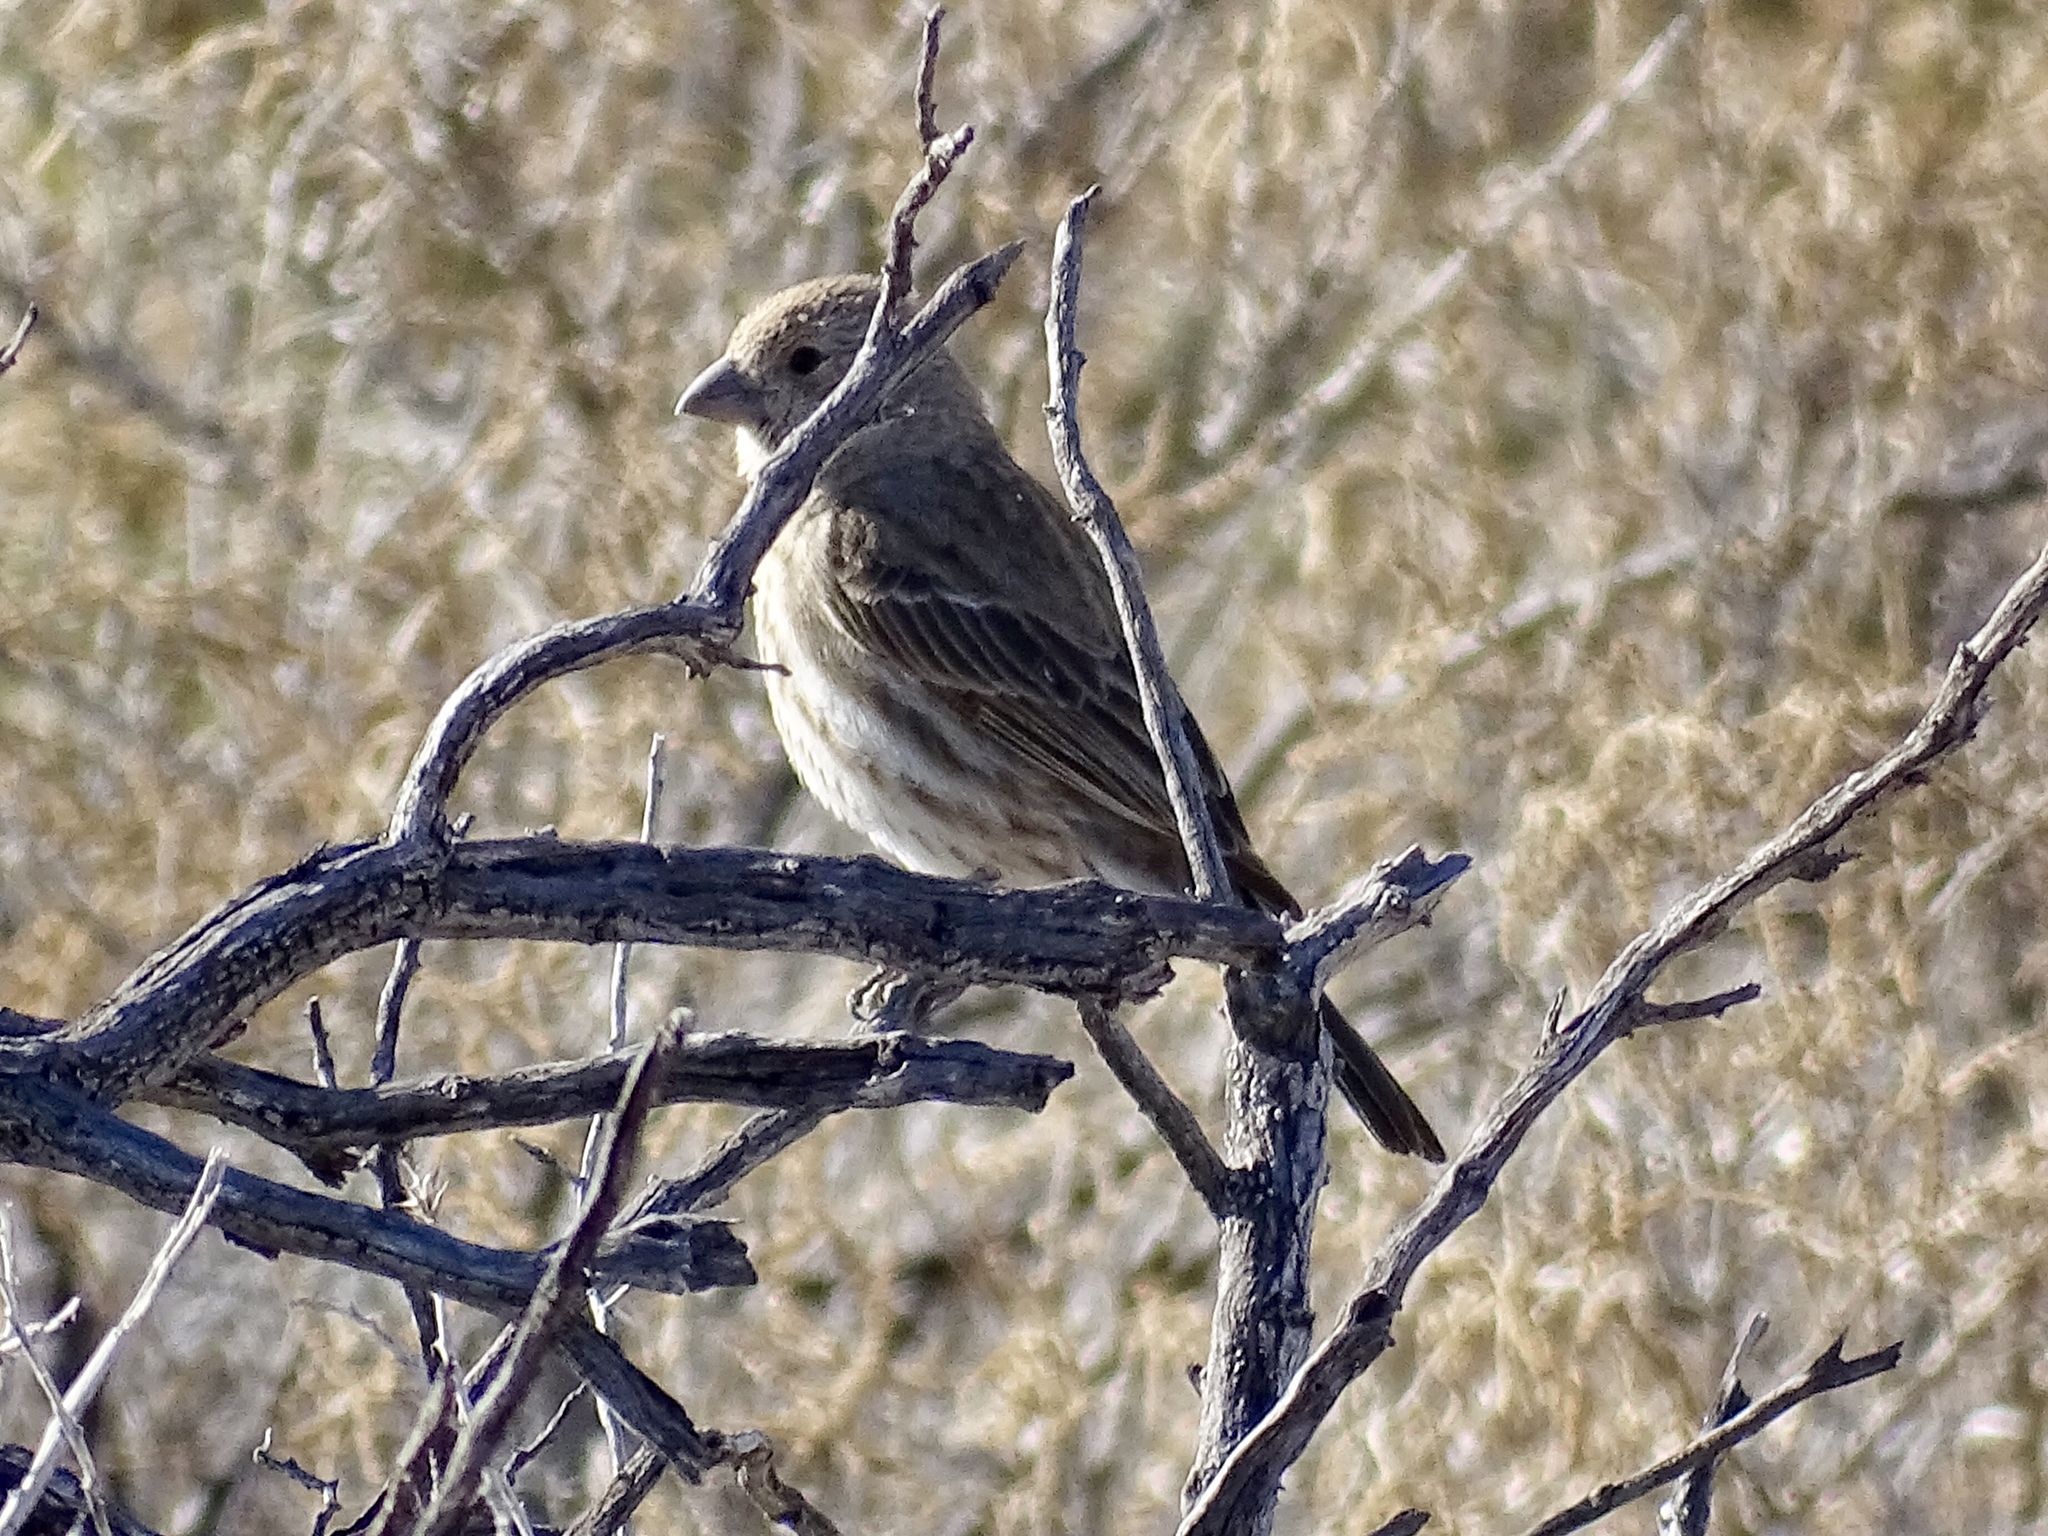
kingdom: Animalia
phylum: Chordata
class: Aves
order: Passeriformes
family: Fringillidae
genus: Haemorhous
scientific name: Haemorhous mexicanus
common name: House finch
